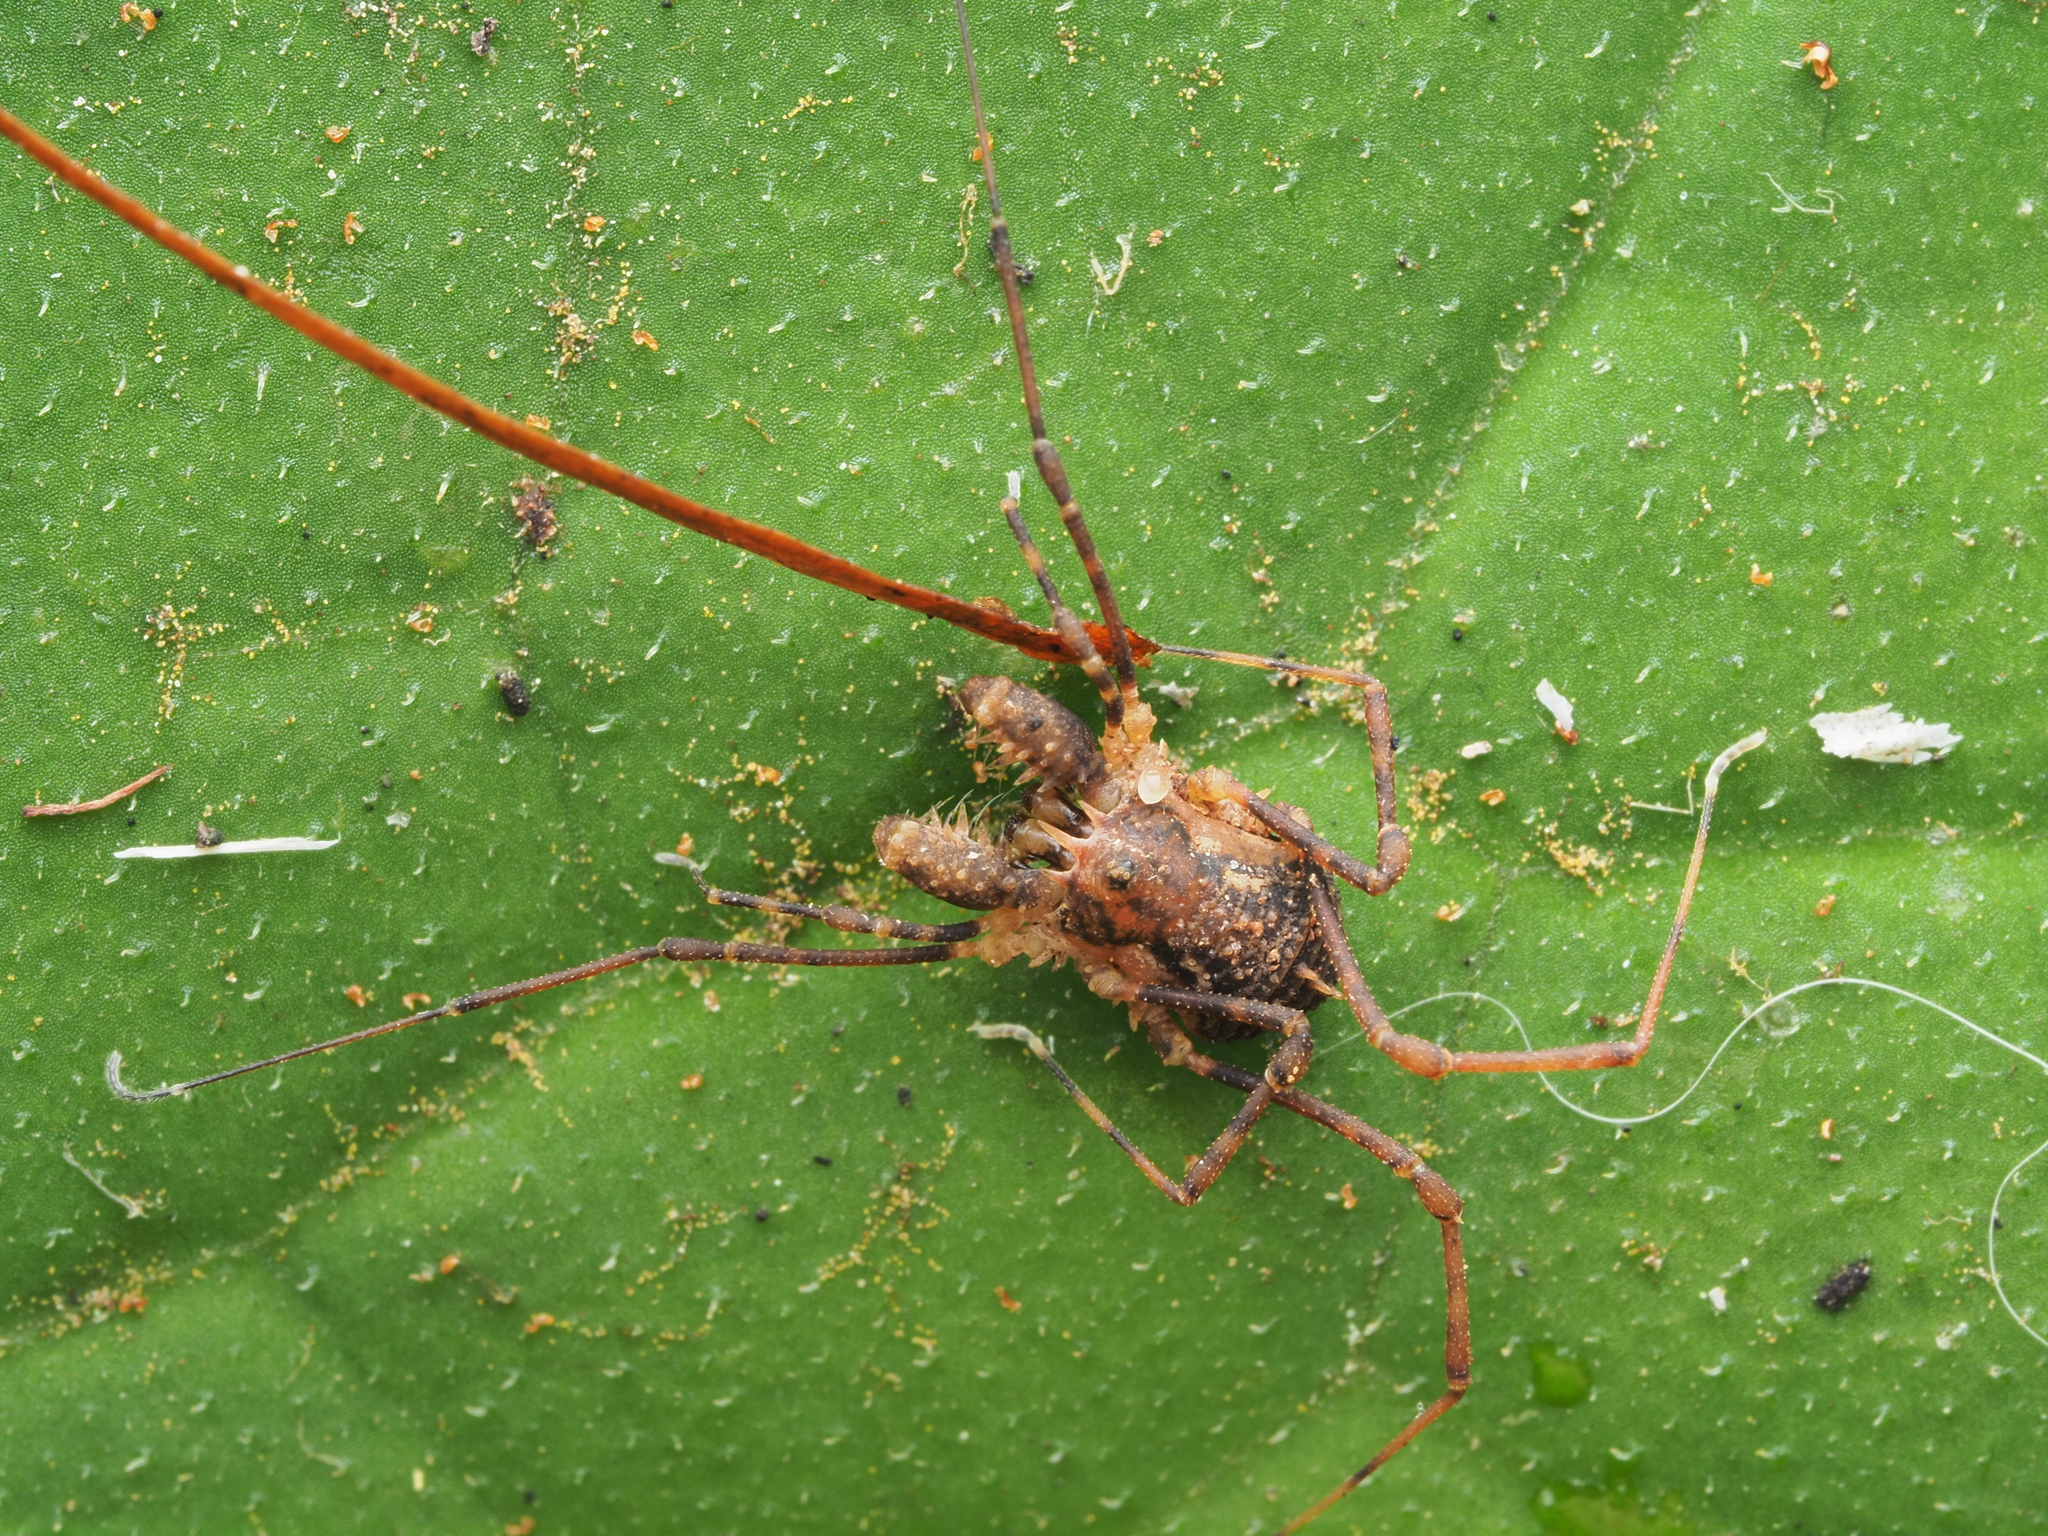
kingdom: Animalia
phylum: Arthropoda
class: Arachnida
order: Opiliones
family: Triaenonychidae
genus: Algidia
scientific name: Algidia chiltoni
